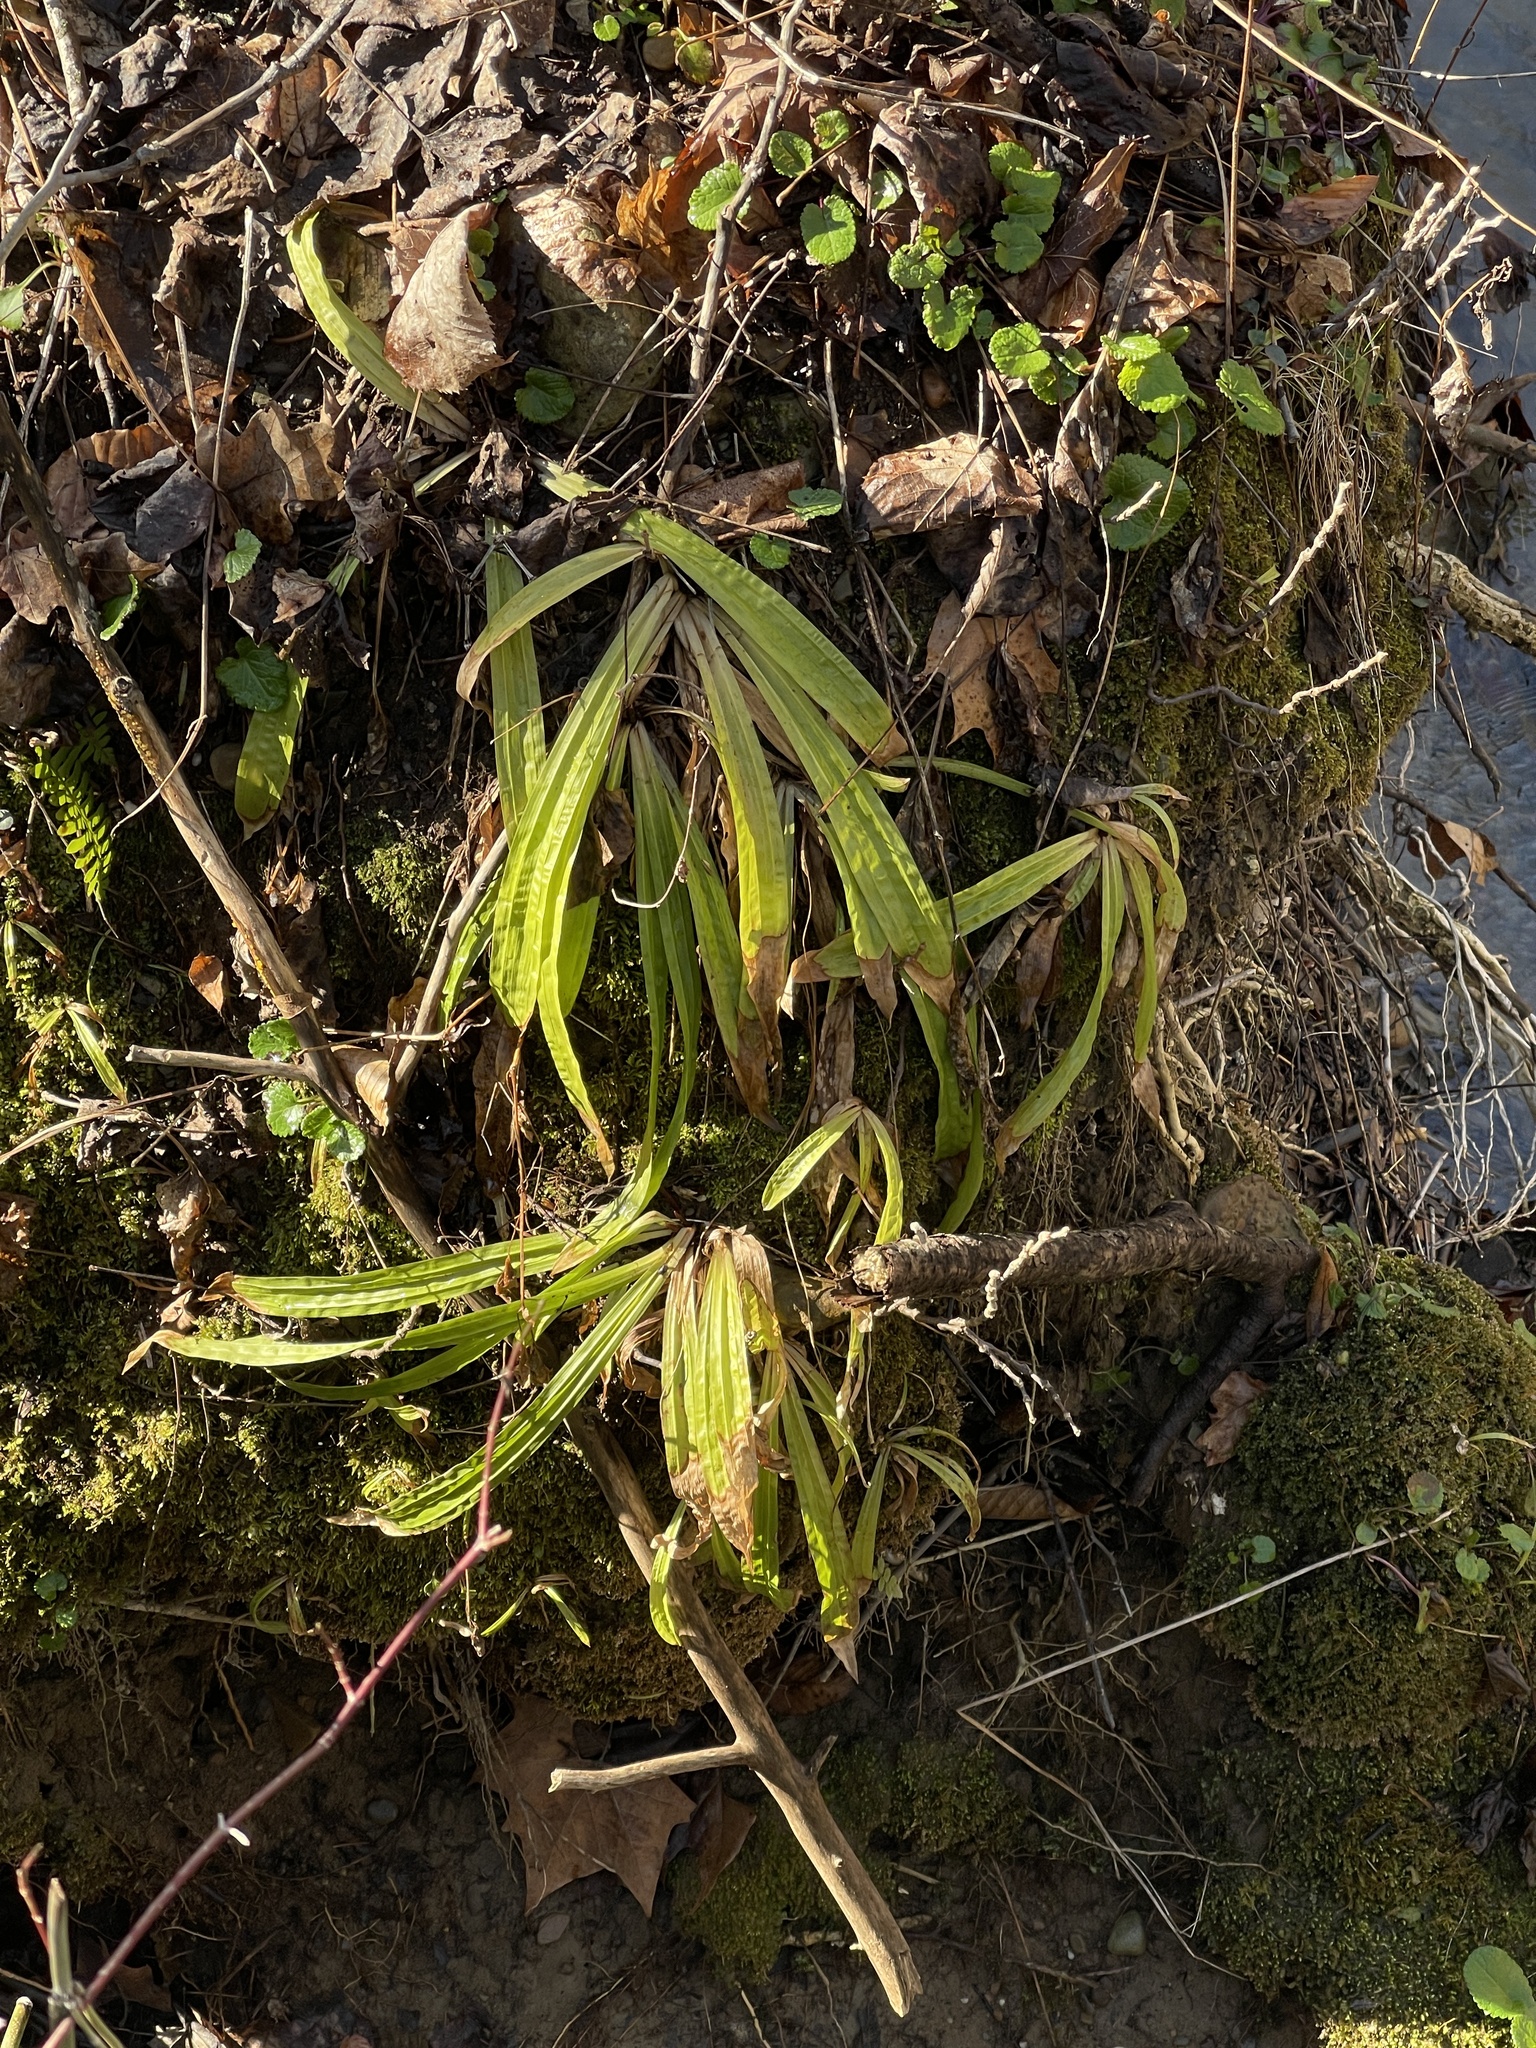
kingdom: Plantae
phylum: Tracheophyta
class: Liliopsida
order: Poales
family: Cyperaceae
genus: Carex
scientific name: Carex plantaginea
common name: Plantain-leaved sedge
